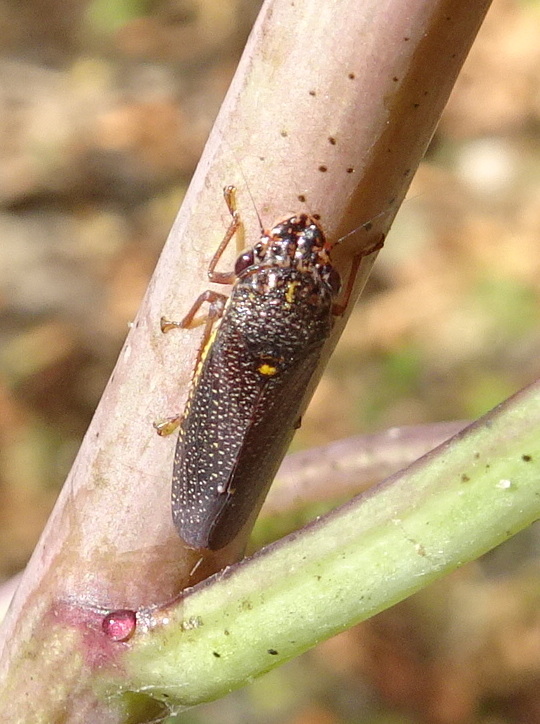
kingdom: Animalia
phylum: Arthropoda
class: Insecta
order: Hemiptera
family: Cicadellidae
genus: Paraulacizes
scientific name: Paraulacizes irrorata
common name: Speckled sharpshooter
